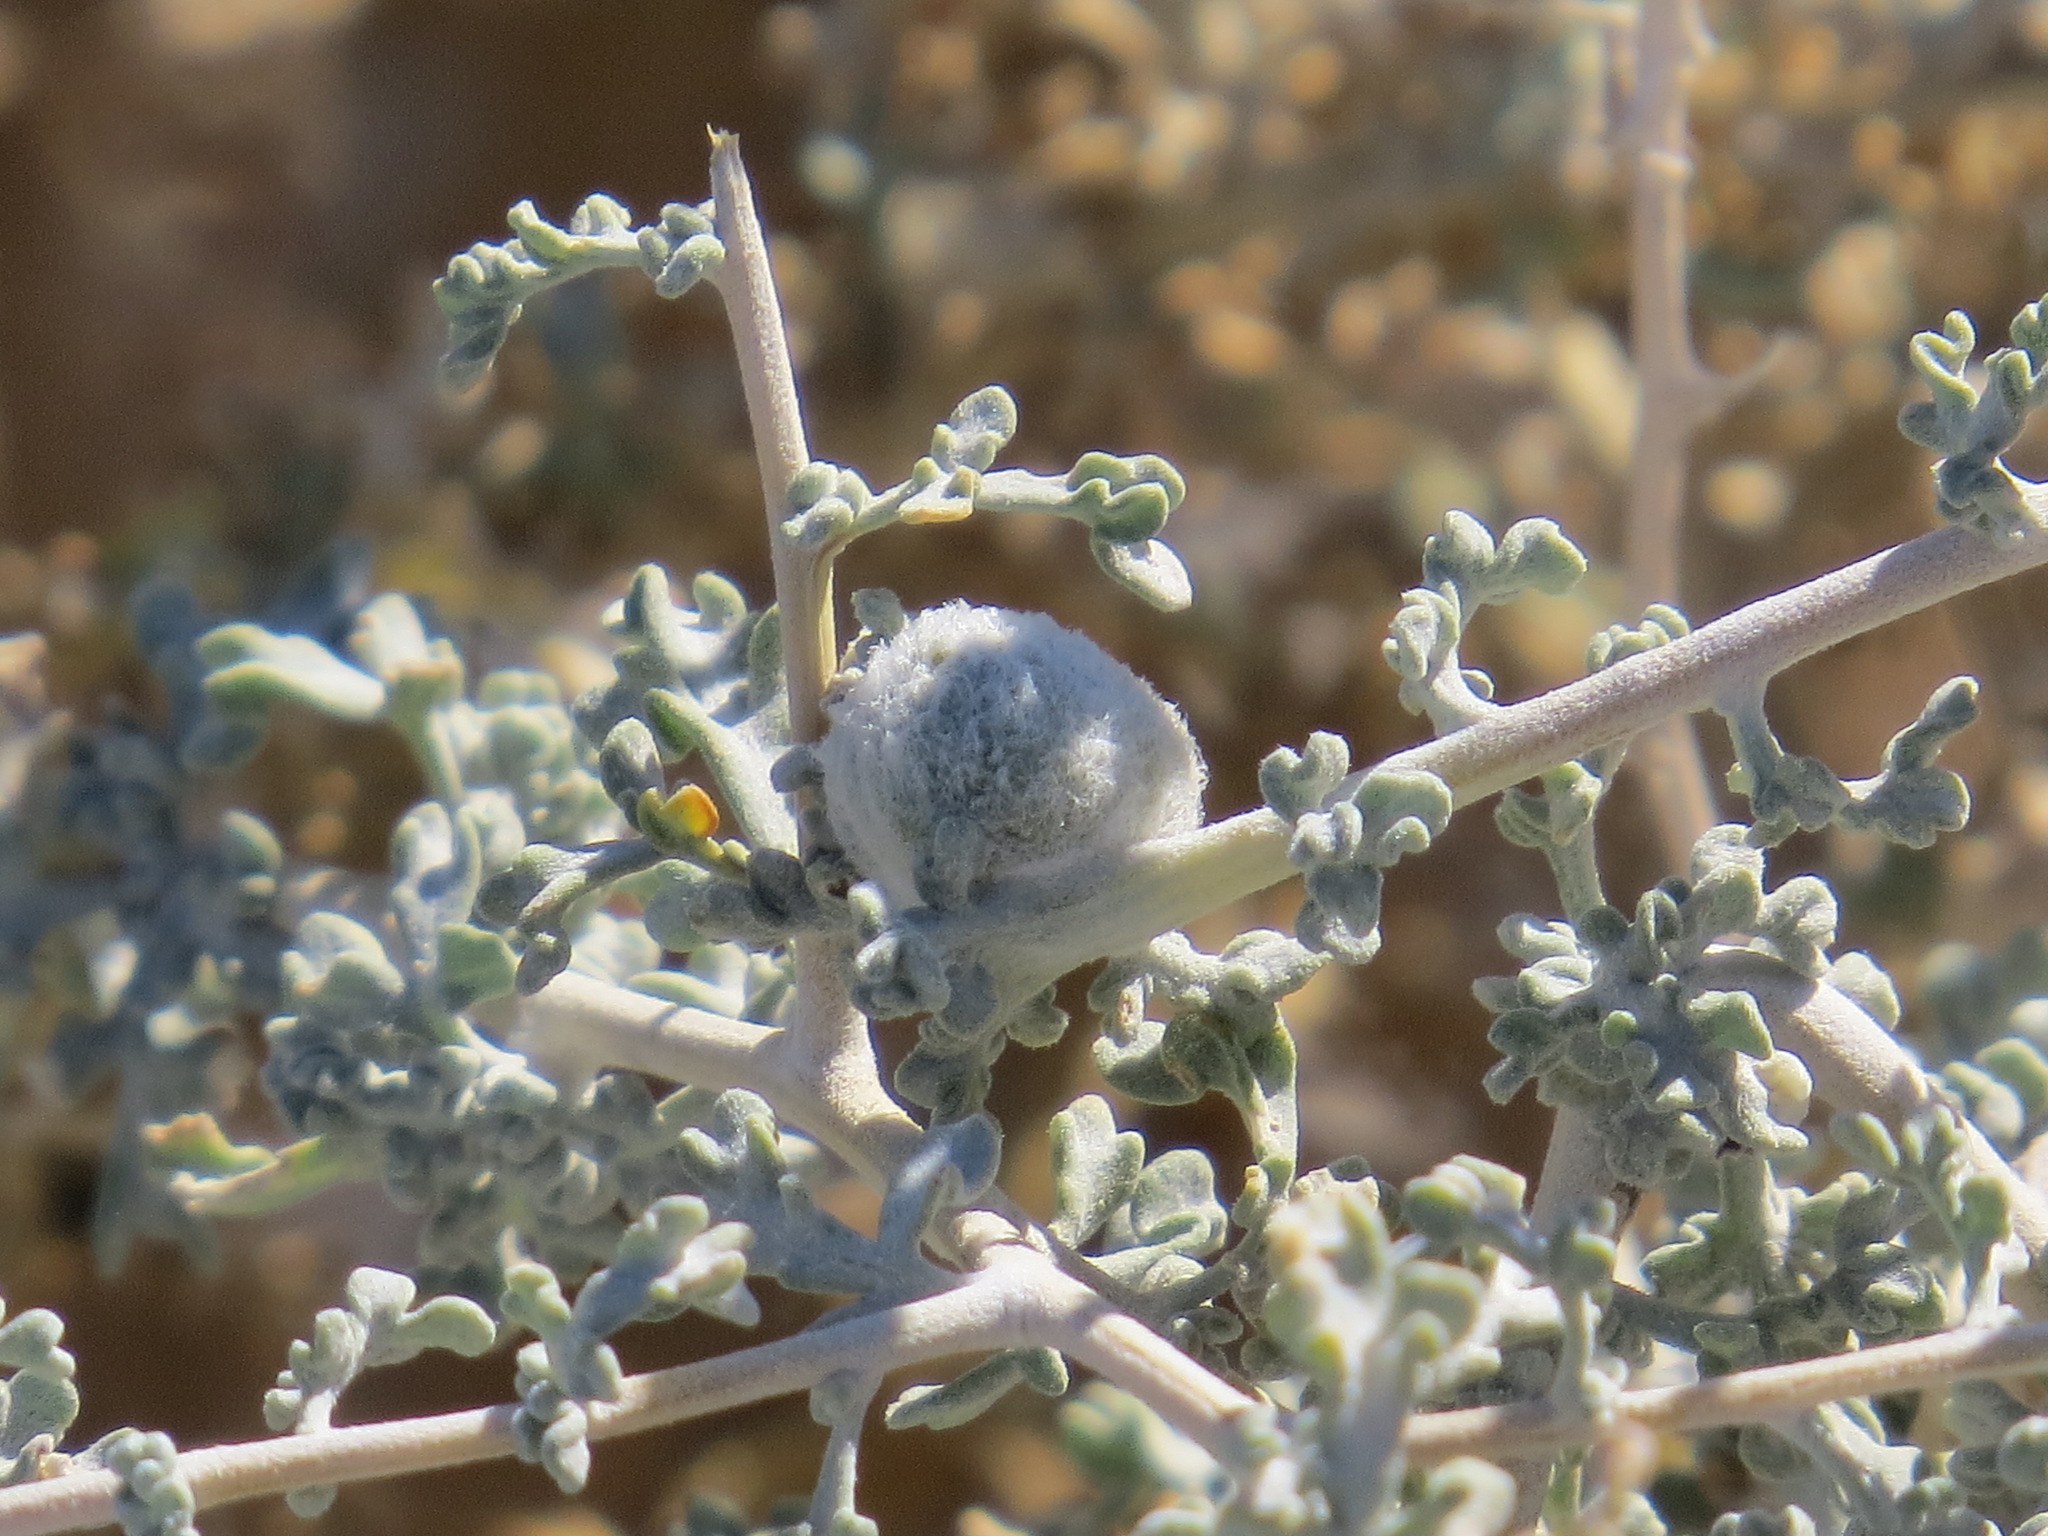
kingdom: Plantae
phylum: Tracheophyta
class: Magnoliopsida
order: Asterales
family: Asteraceae
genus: Ambrosia
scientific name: Ambrosia dumosa
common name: Bur-sage
